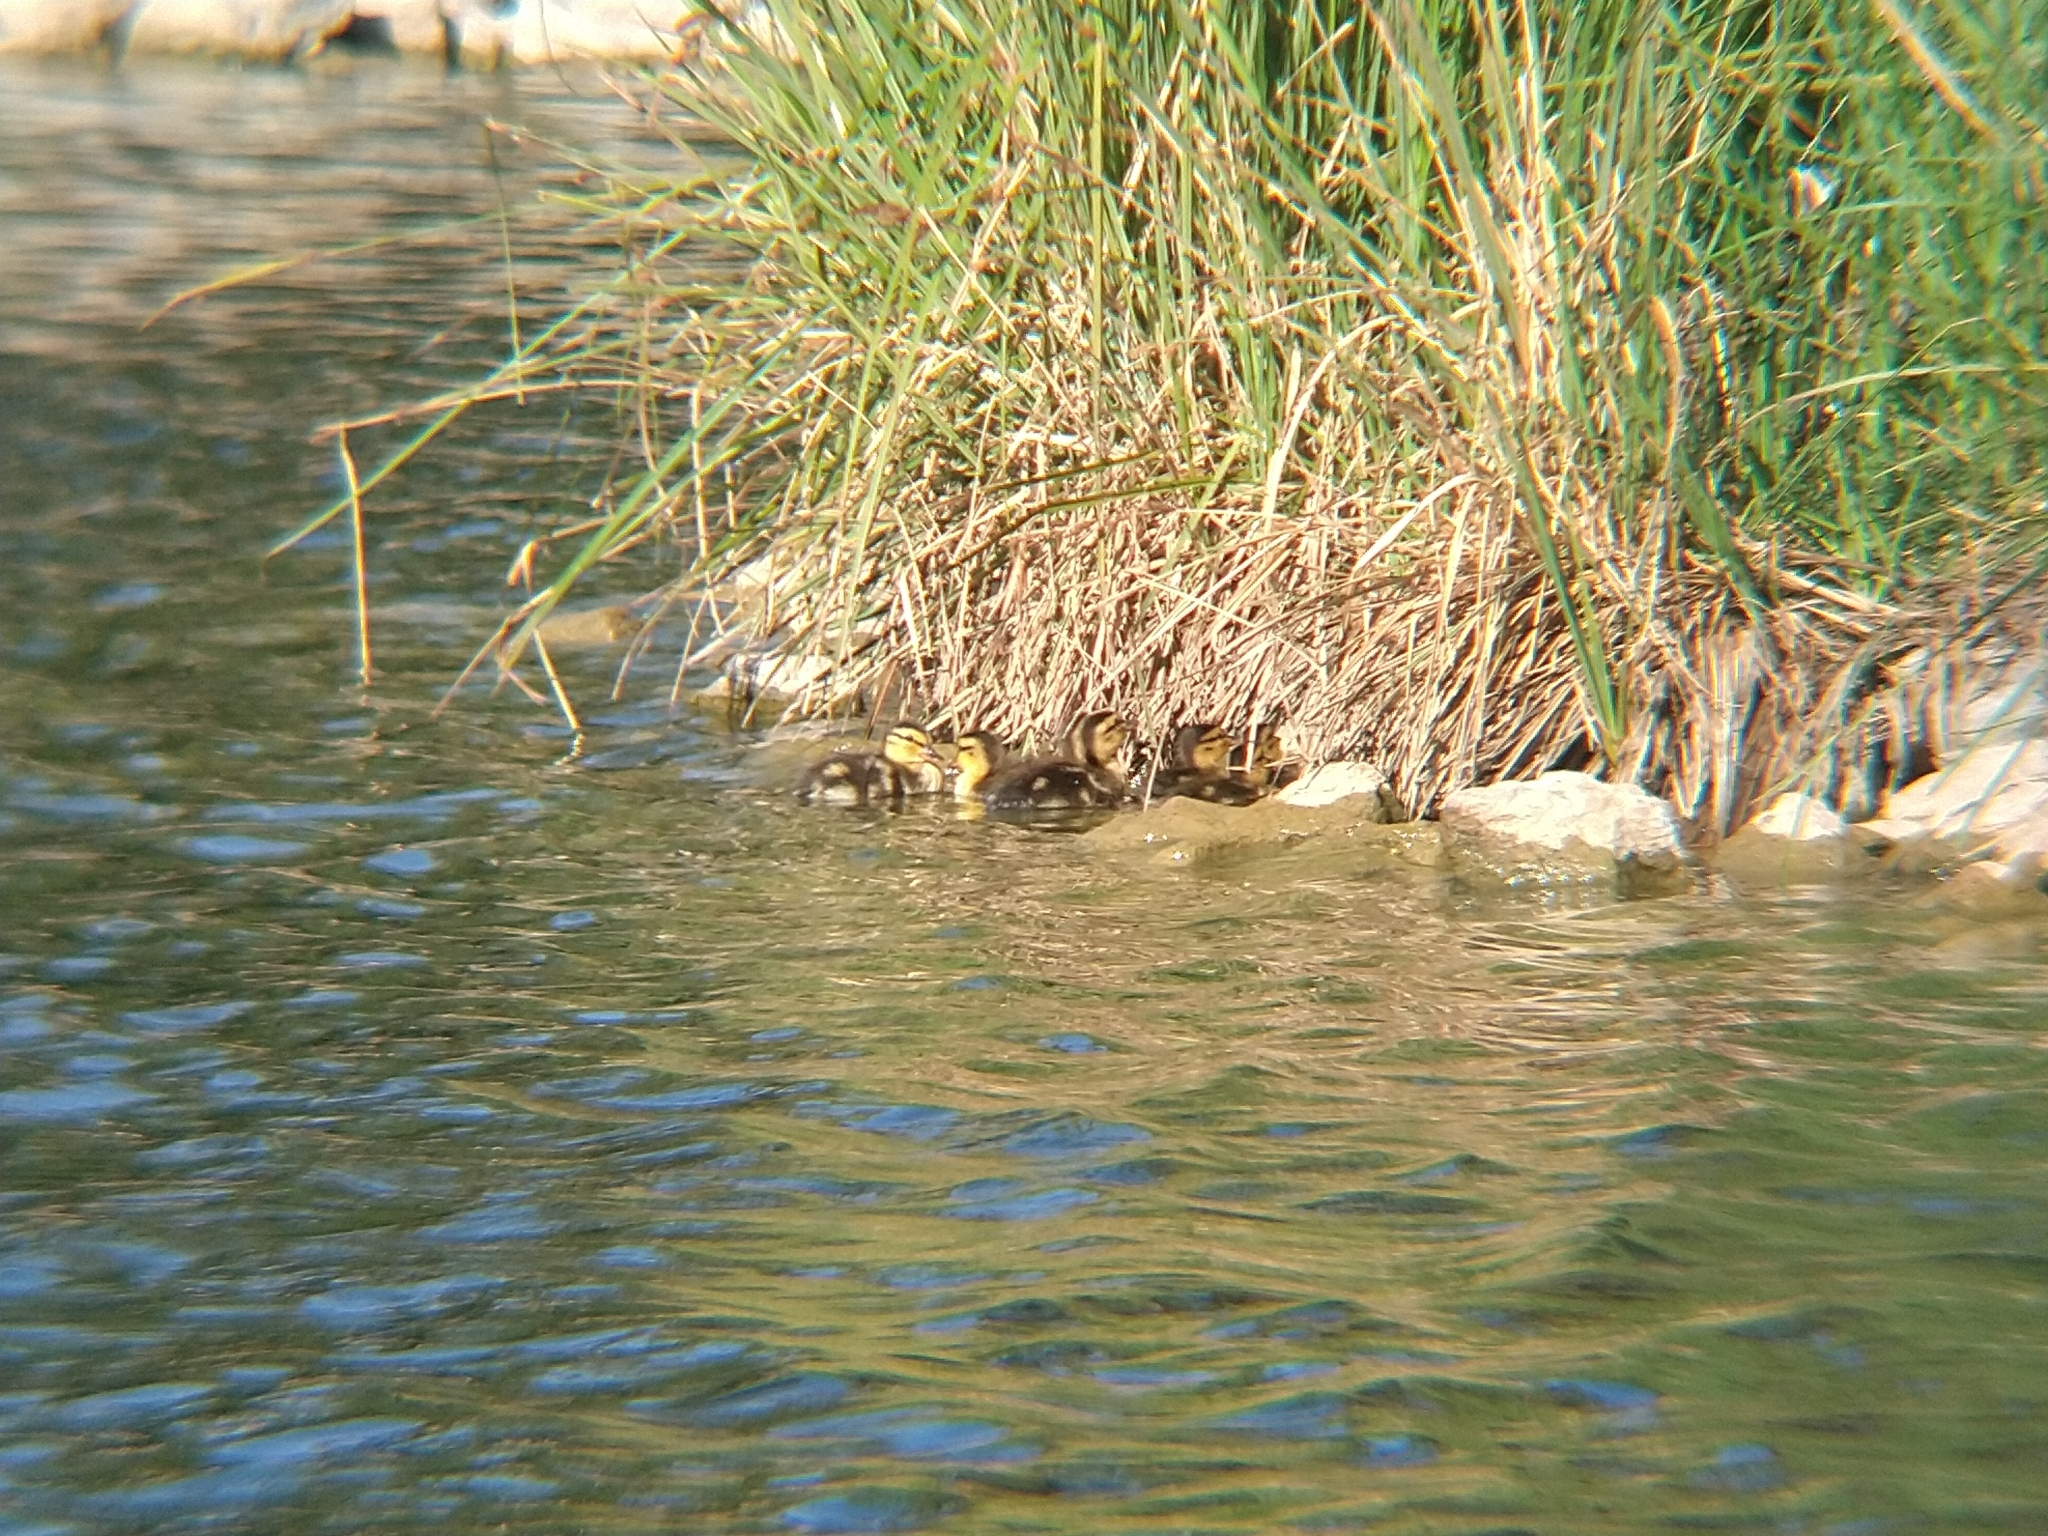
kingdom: Animalia
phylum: Chordata
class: Aves
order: Anseriformes
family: Anatidae
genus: Anas
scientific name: Anas platyrhynchos
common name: Mallard
